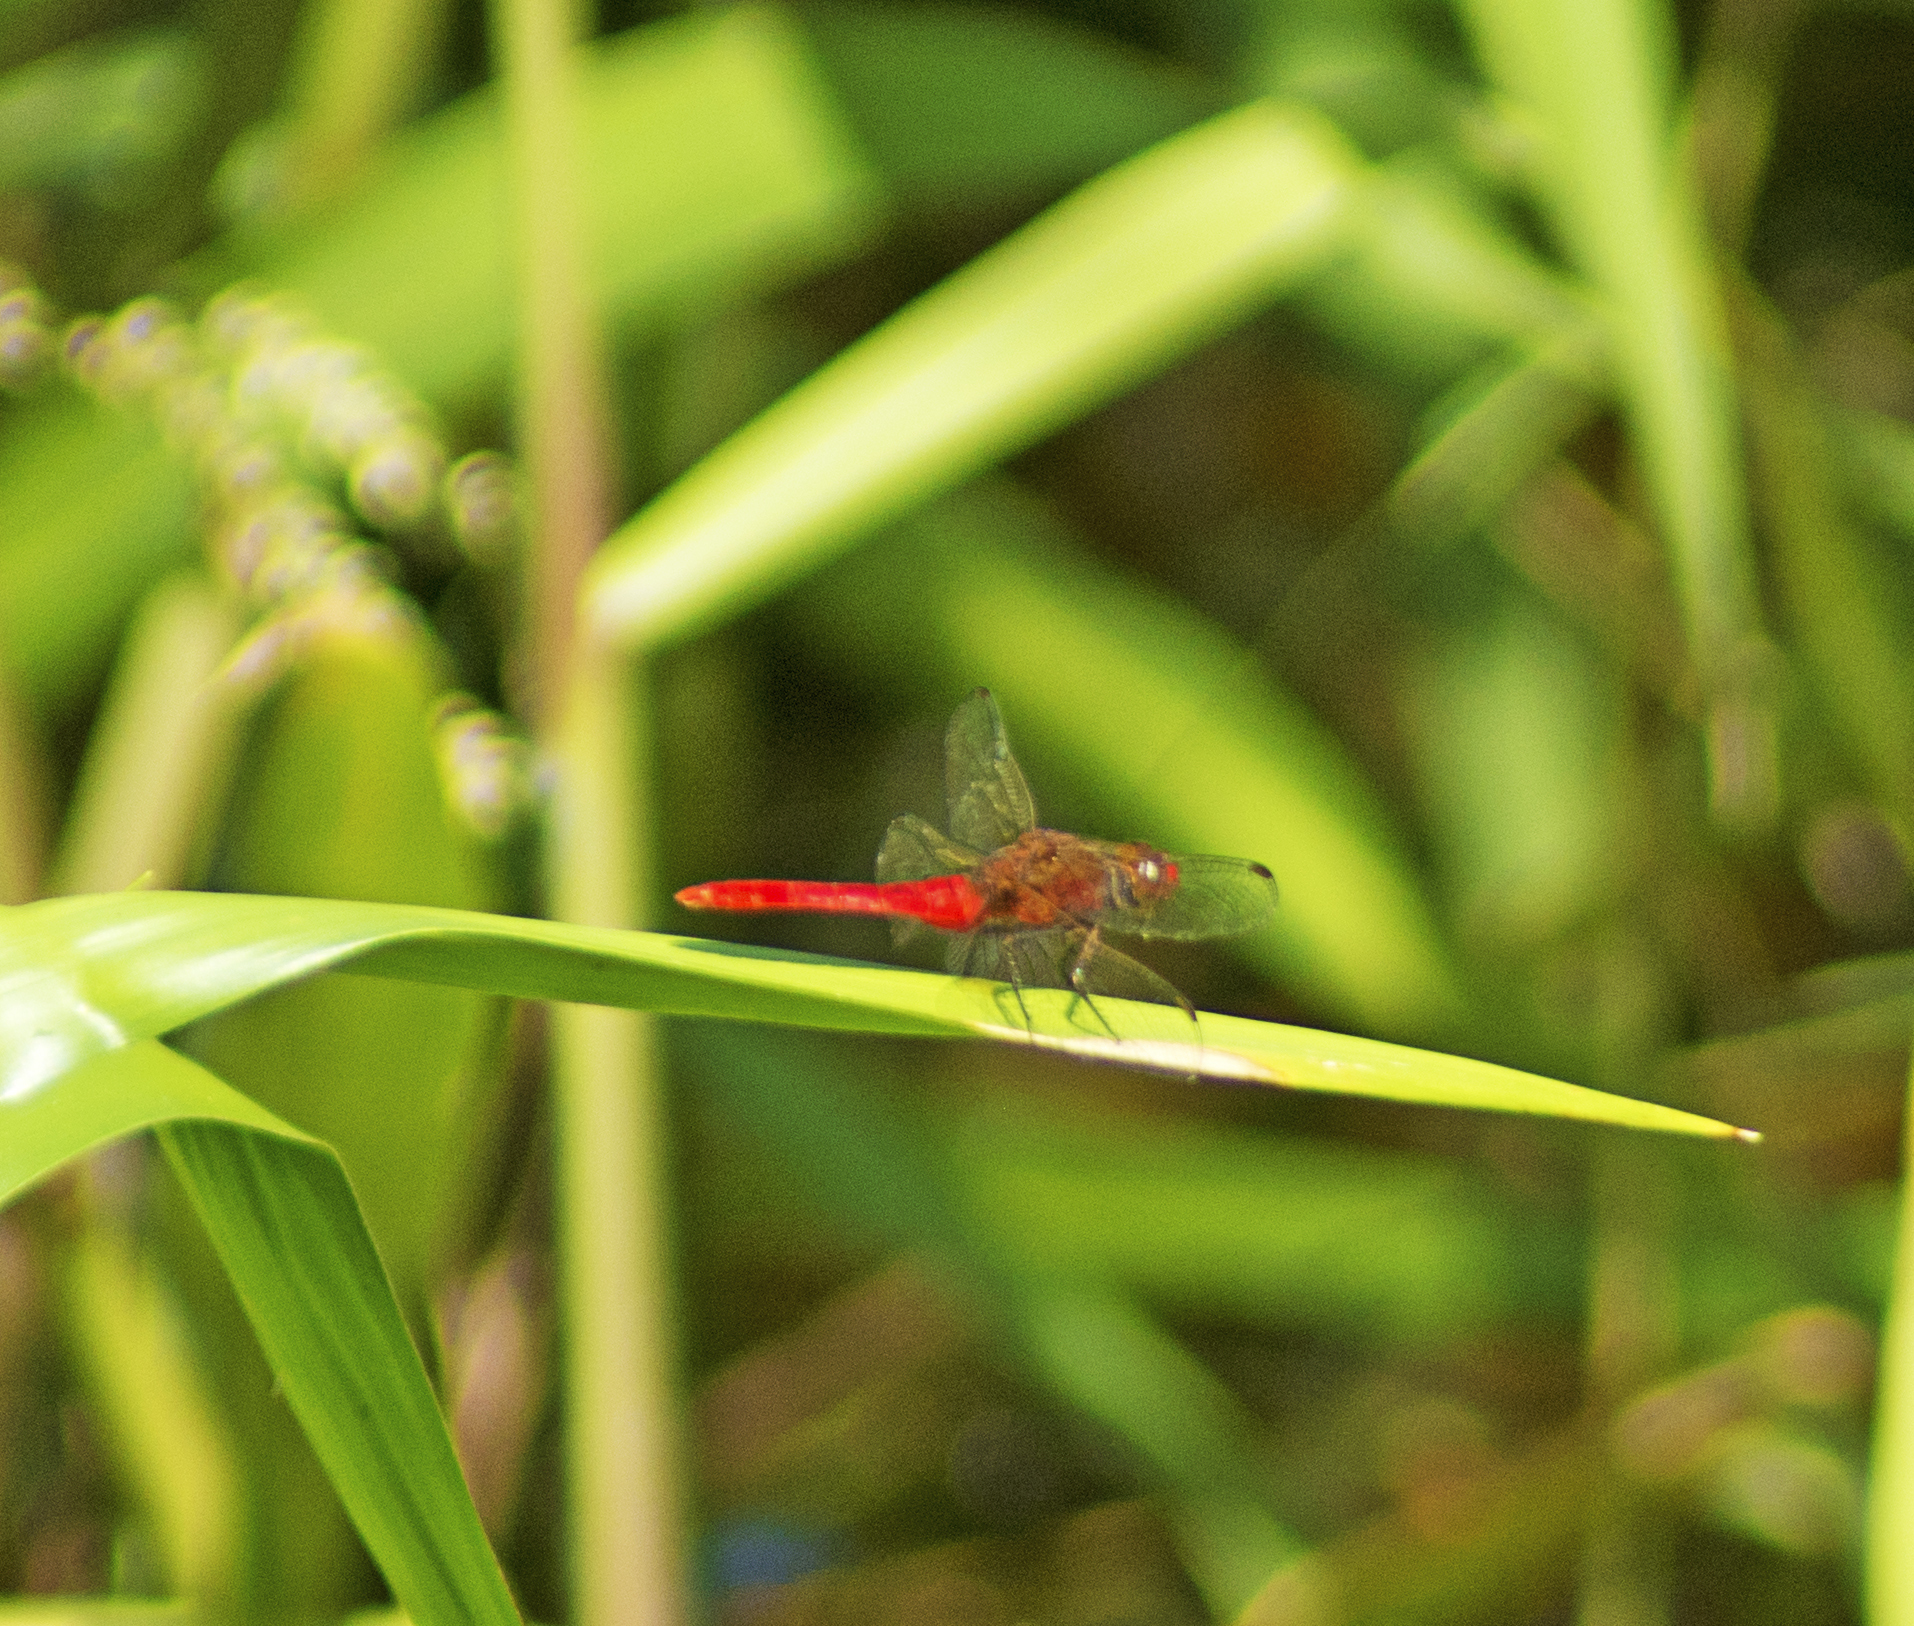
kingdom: Animalia
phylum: Arthropoda
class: Insecta
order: Odonata
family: Libellulidae
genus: Rhodothemis
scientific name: Rhodothemis lieftincki
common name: Red arrow
